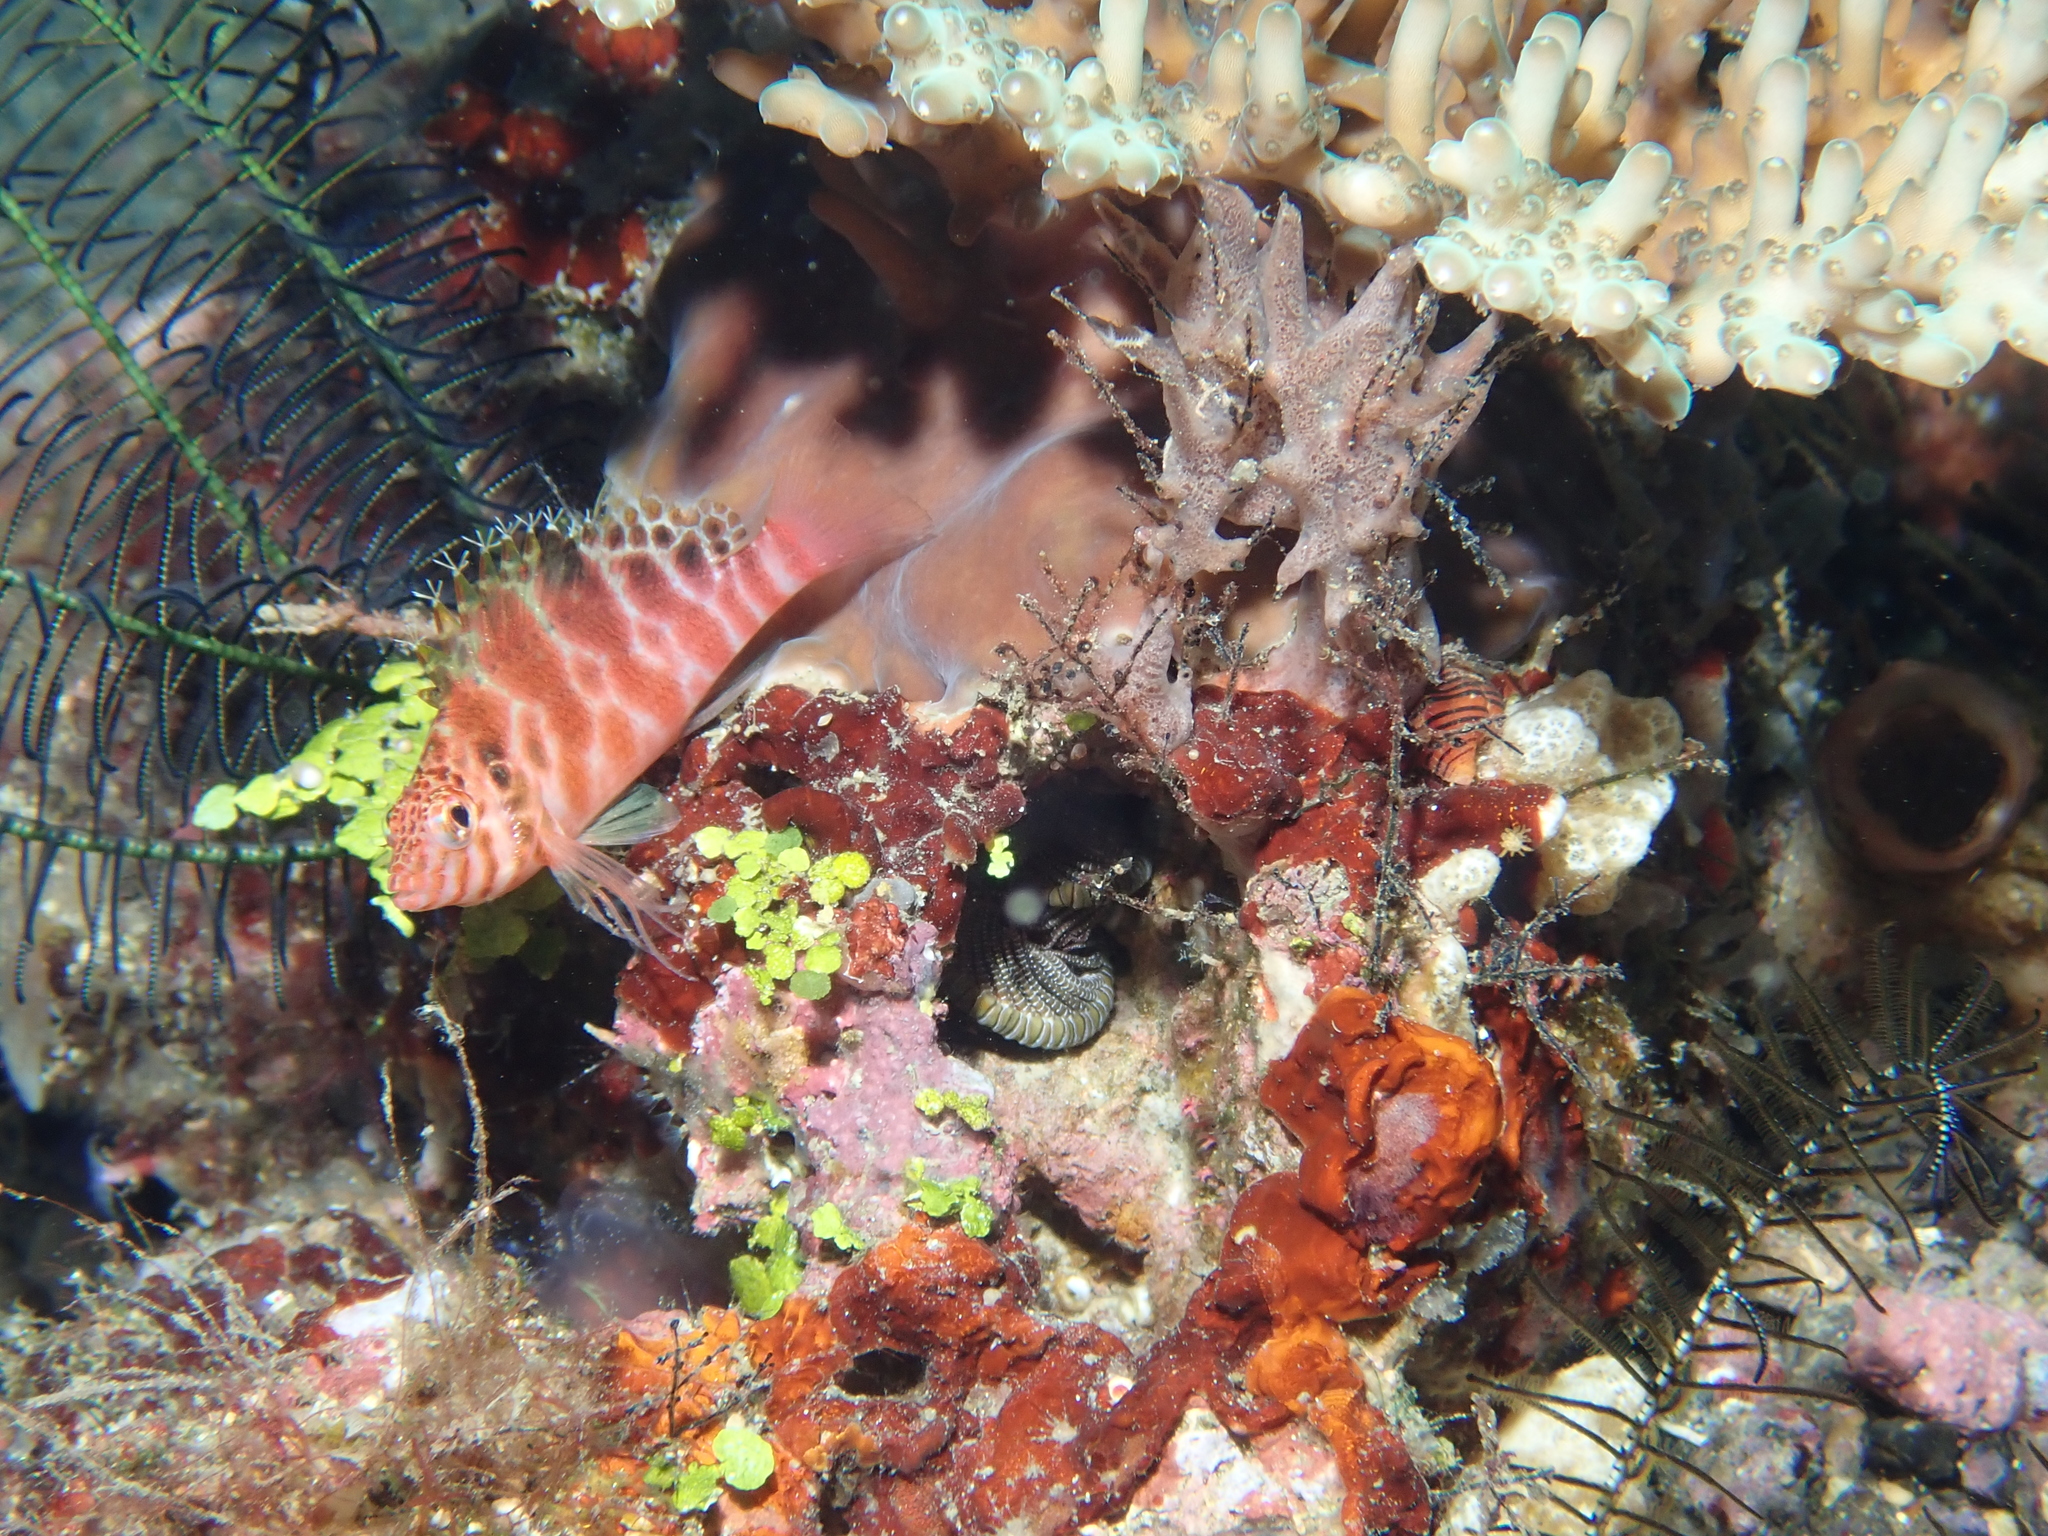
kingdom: Animalia
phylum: Chordata
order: Perciformes
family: Cirrhitidae
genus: Cirrhitichthys
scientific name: Cirrhitichthys aprinus
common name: Blotched hawkfish
